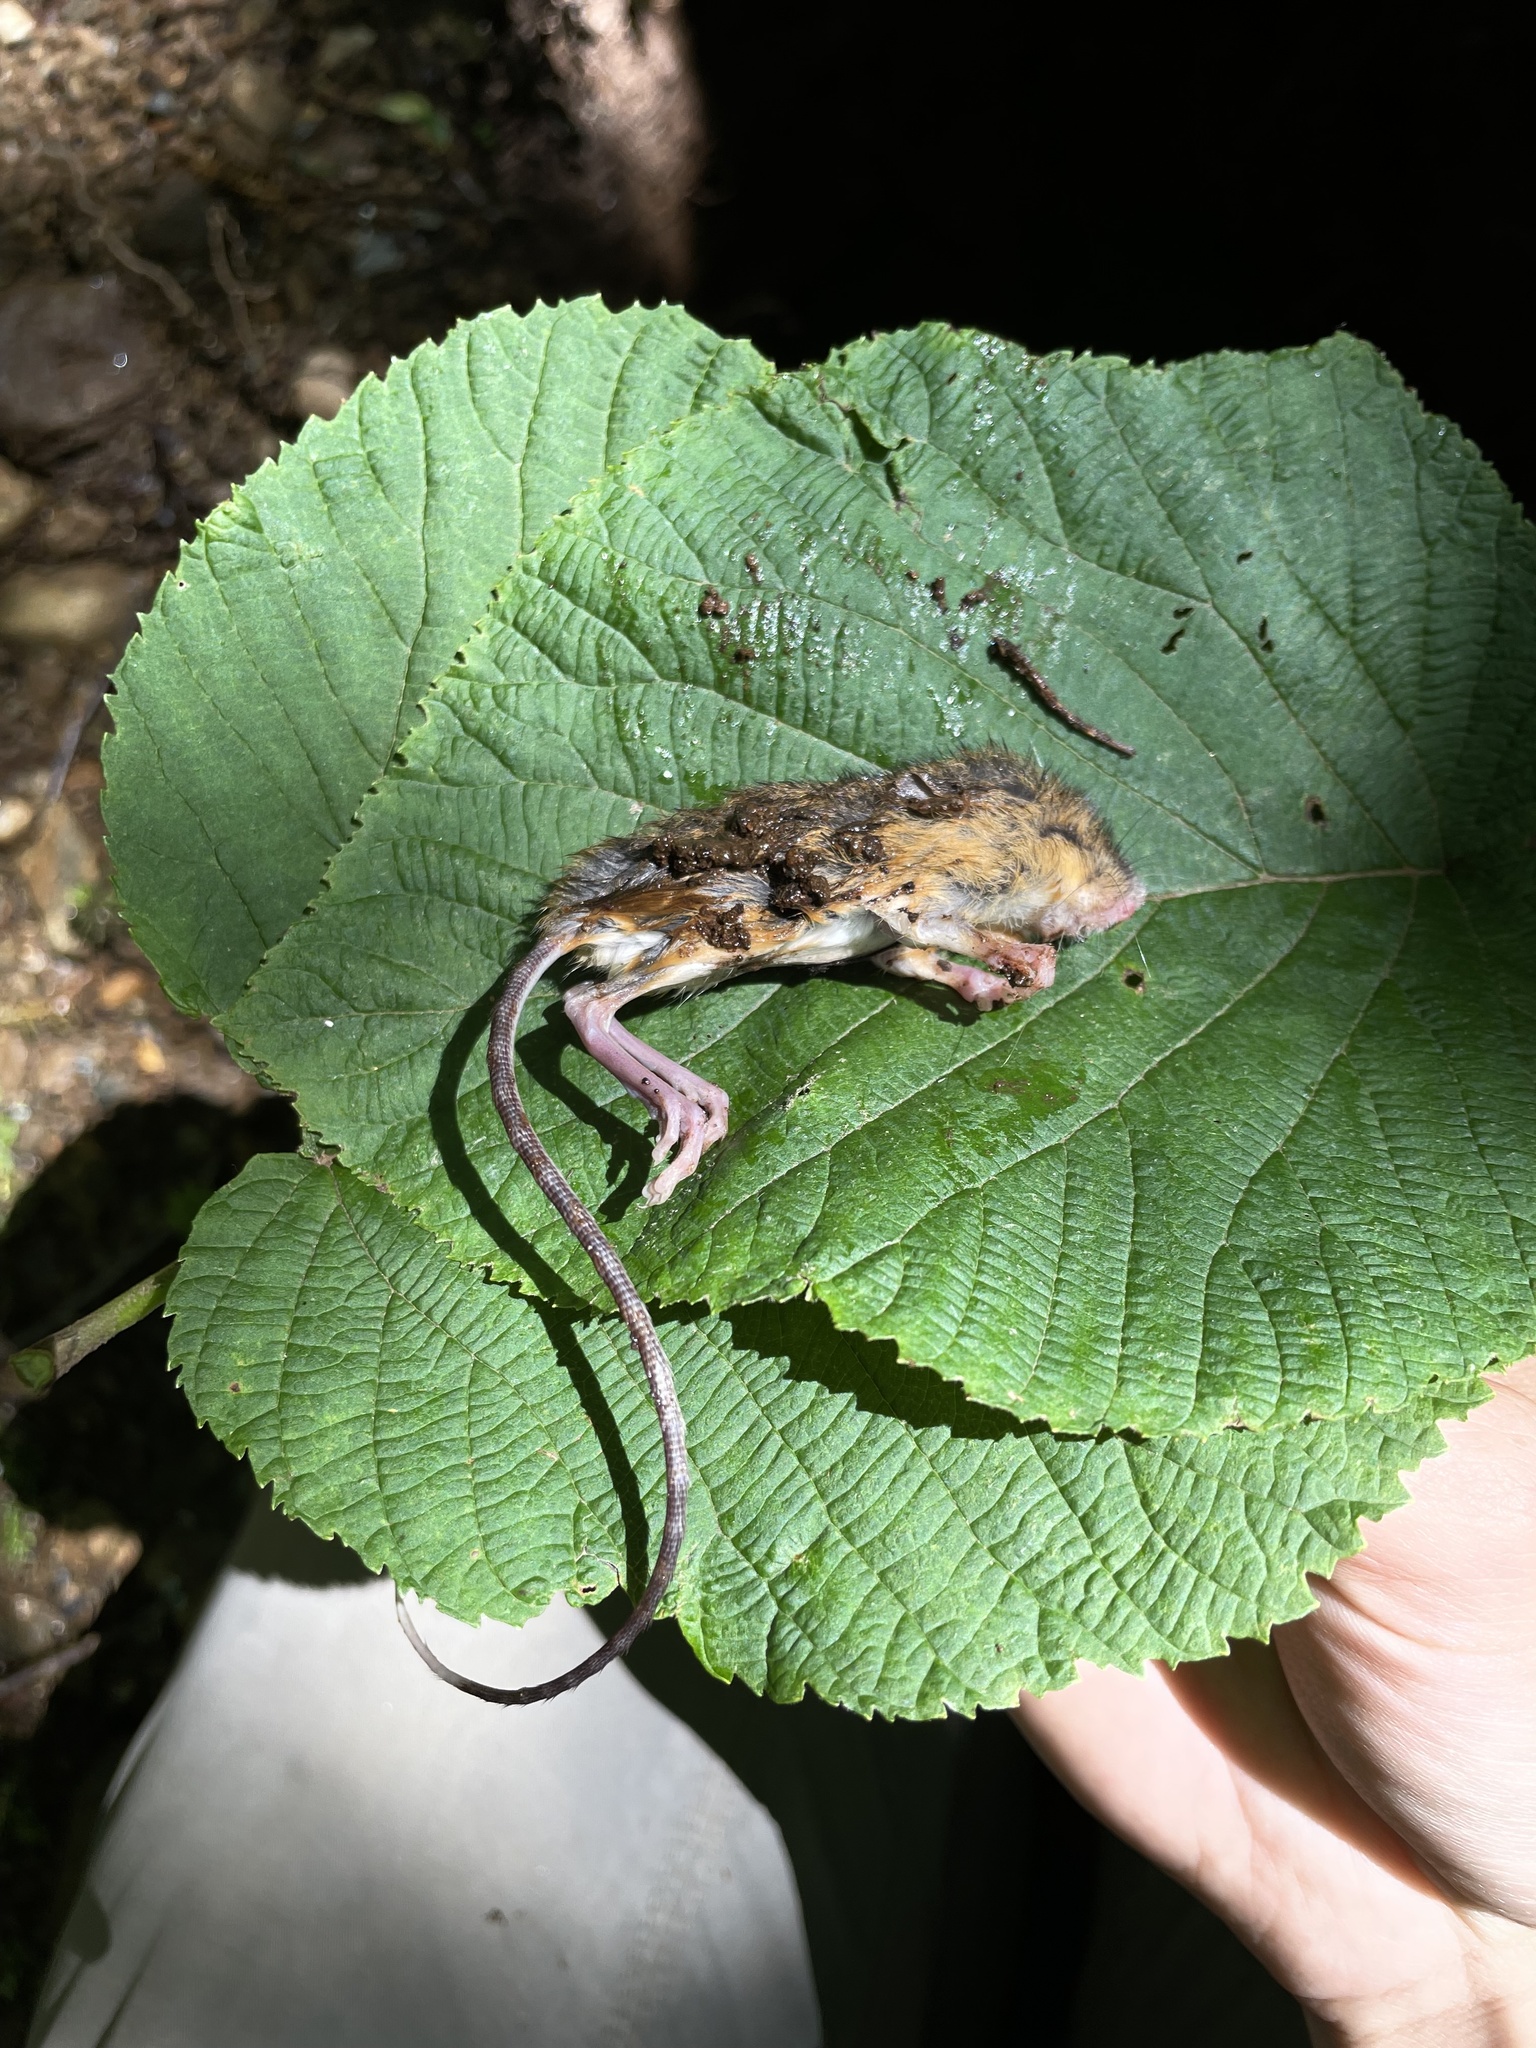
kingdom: Animalia
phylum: Chordata
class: Mammalia
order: Rodentia
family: Dipodidae
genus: Napaeozapus
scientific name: Napaeozapus insignis
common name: Woodland jumping mouse
